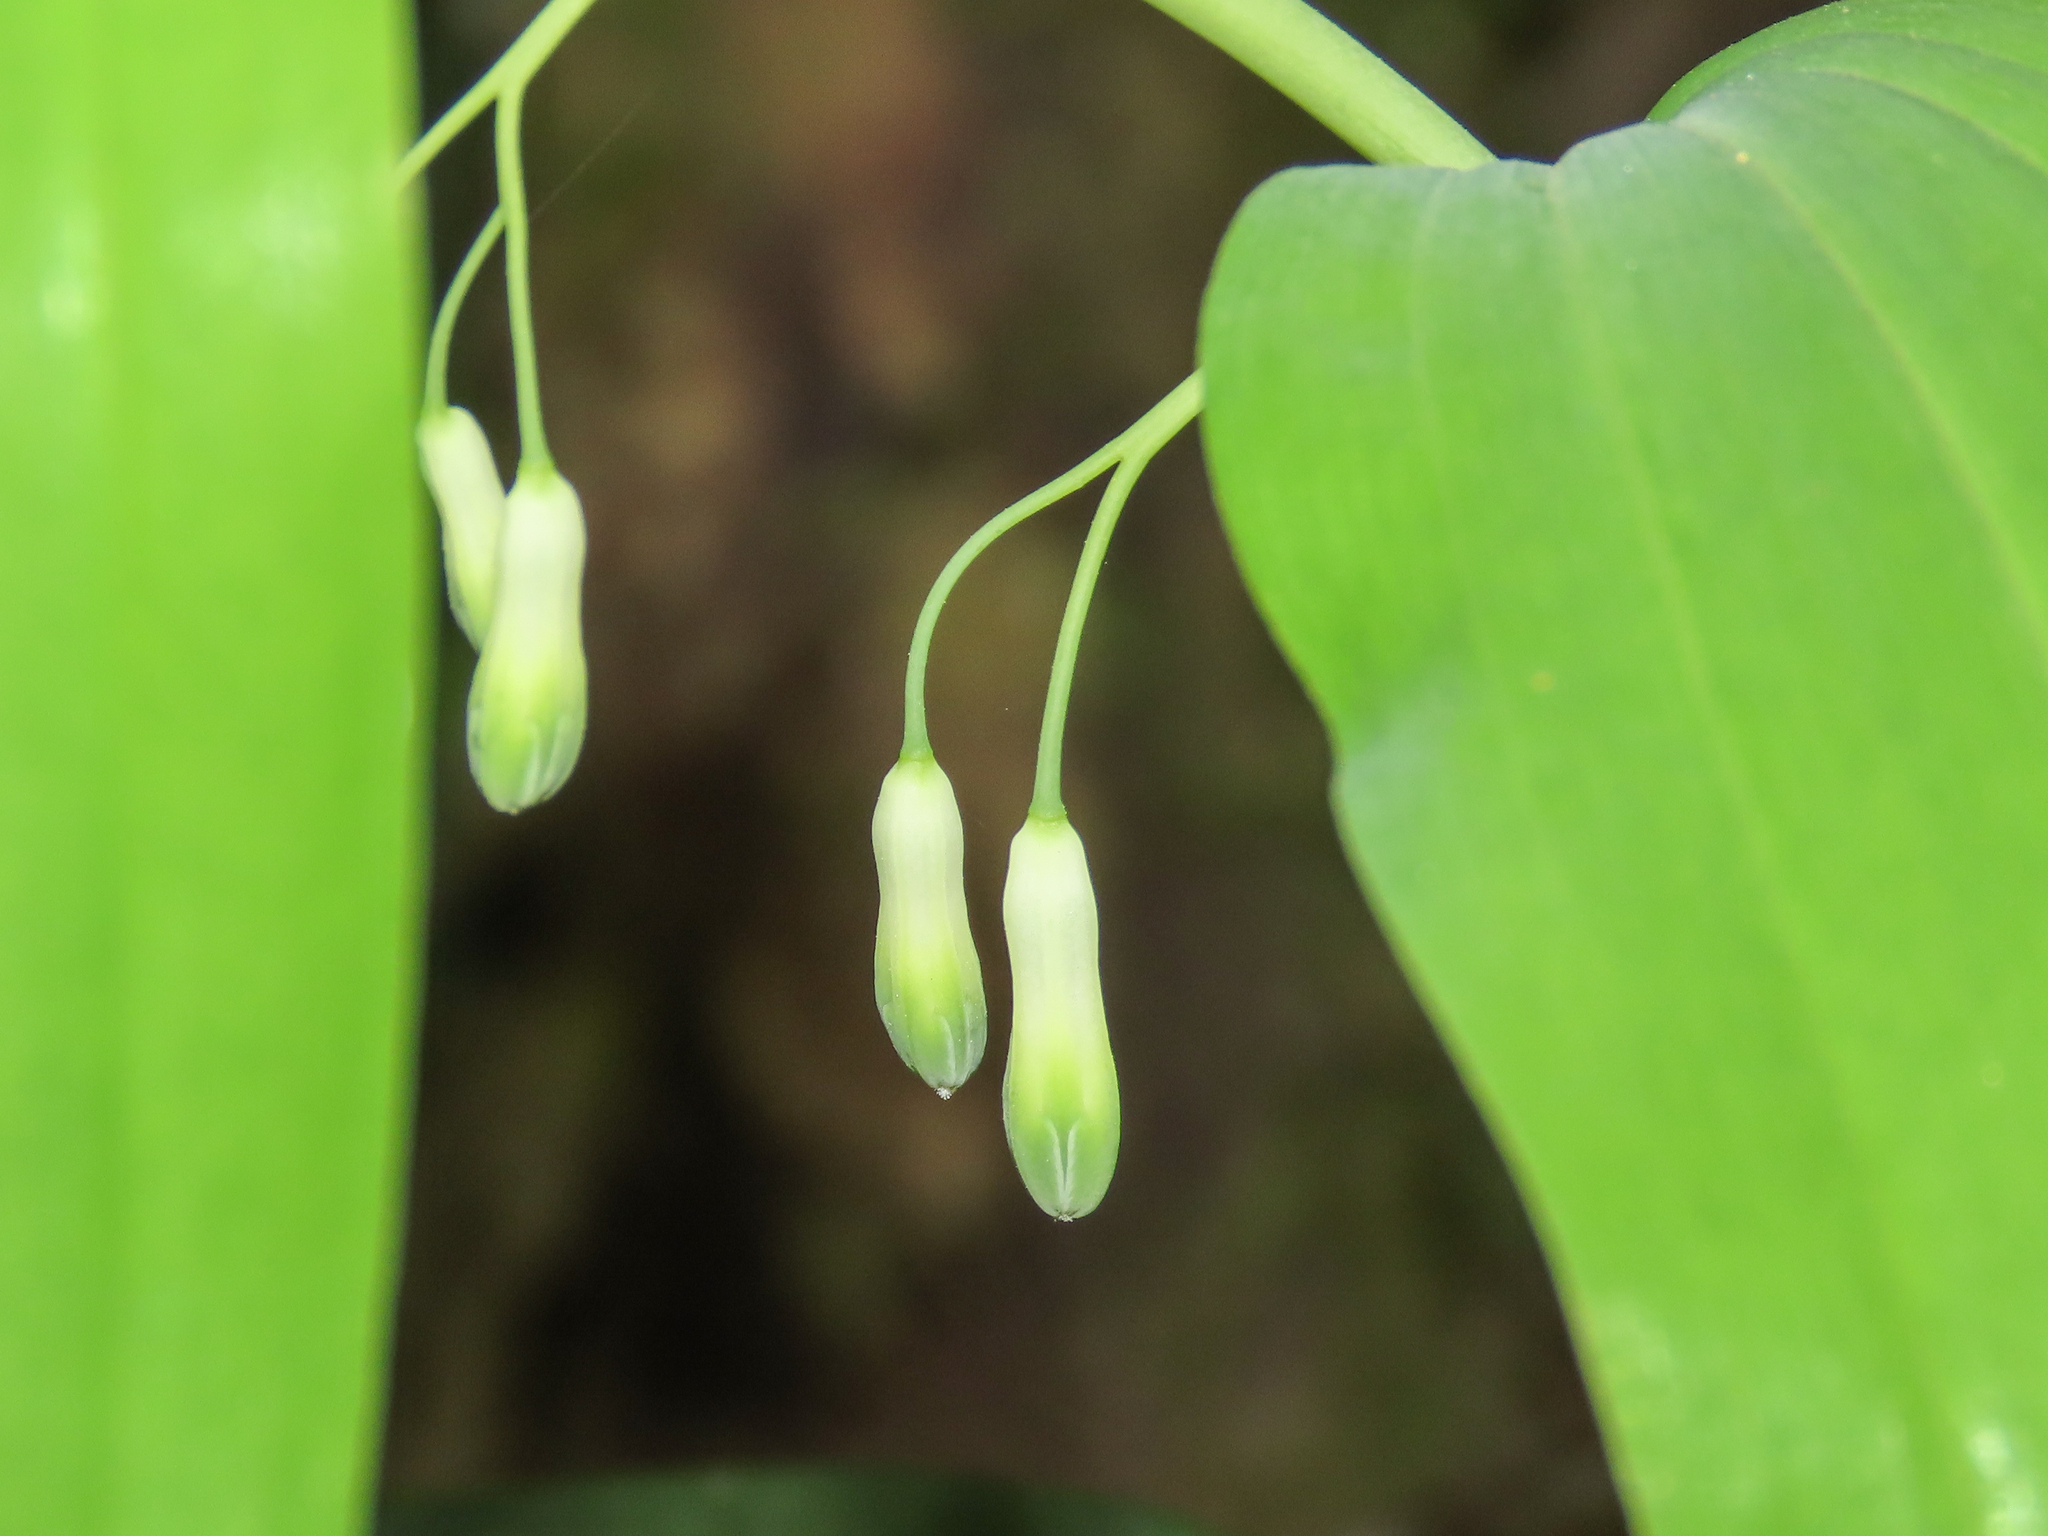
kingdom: Plantae
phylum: Tracheophyta
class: Liliopsida
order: Asparagales
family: Asparagaceae
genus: Polygonatum
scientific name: Polygonatum multiflorum
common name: Solomon's-seal
